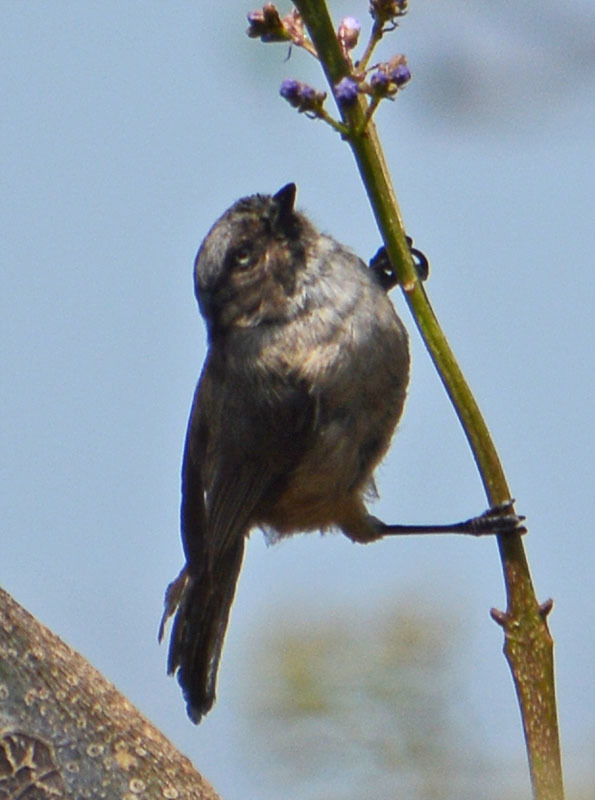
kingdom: Animalia
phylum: Chordata
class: Aves
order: Passeriformes
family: Aegithalidae
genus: Psaltriparus
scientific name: Psaltriparus minimus
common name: American bushtit
